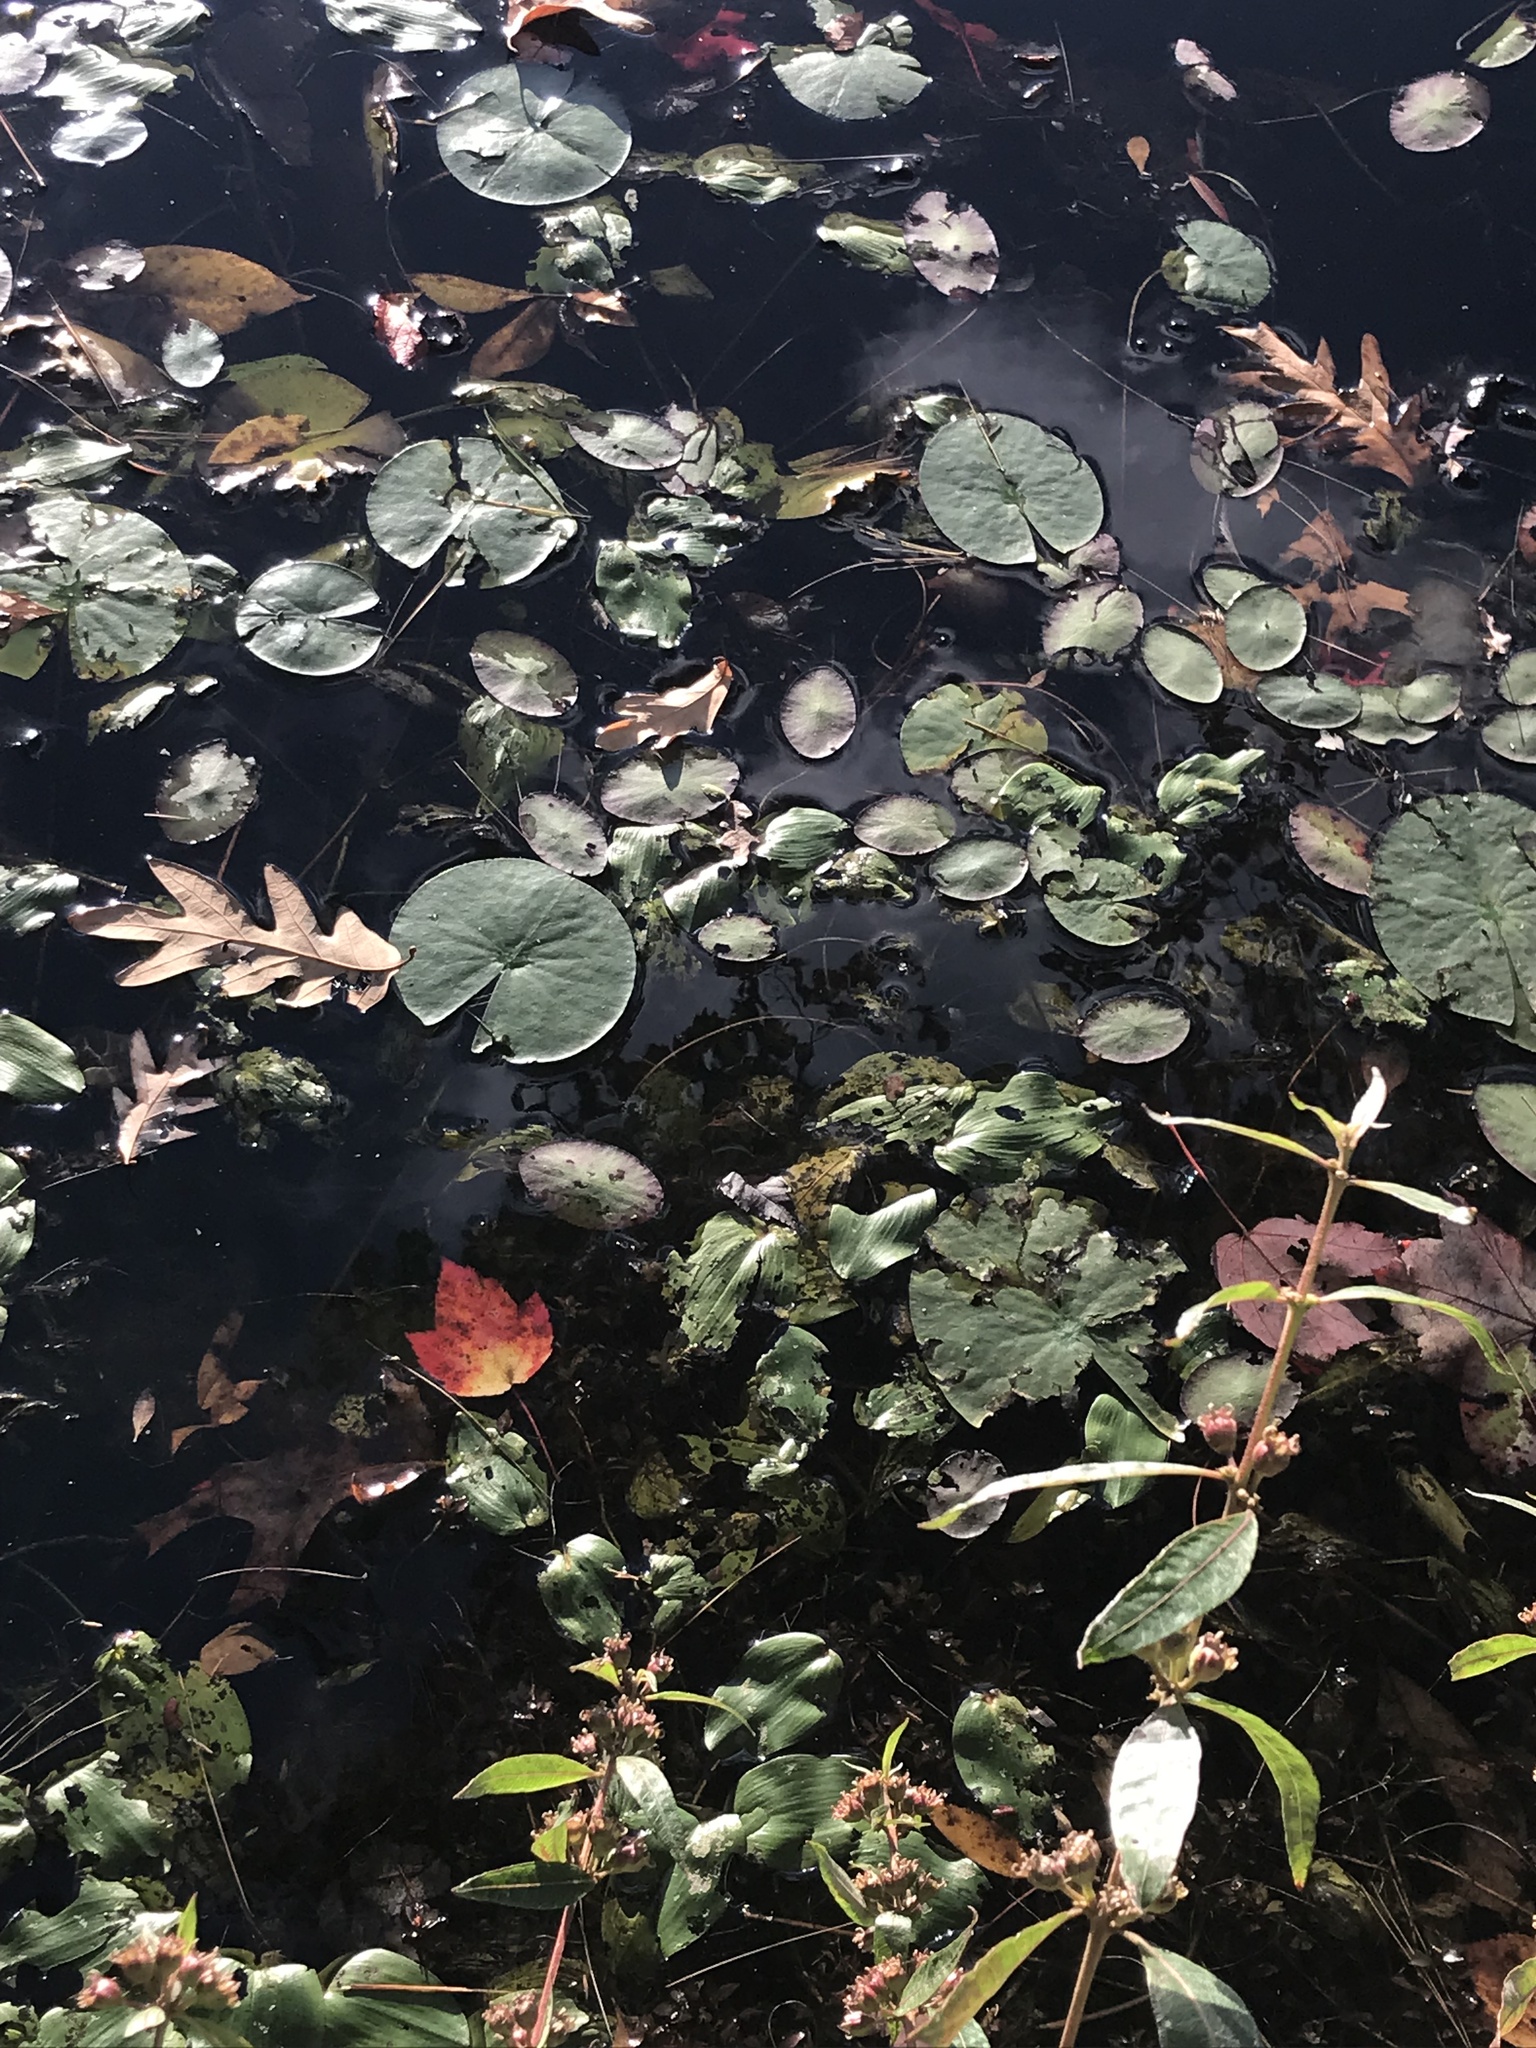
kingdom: Plantae
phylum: Tracheophyta
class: Magnoliopsida
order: Nymphaeales
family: Cabombaceae
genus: Brasenia
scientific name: Brasenia schreberi
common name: Water-shield
